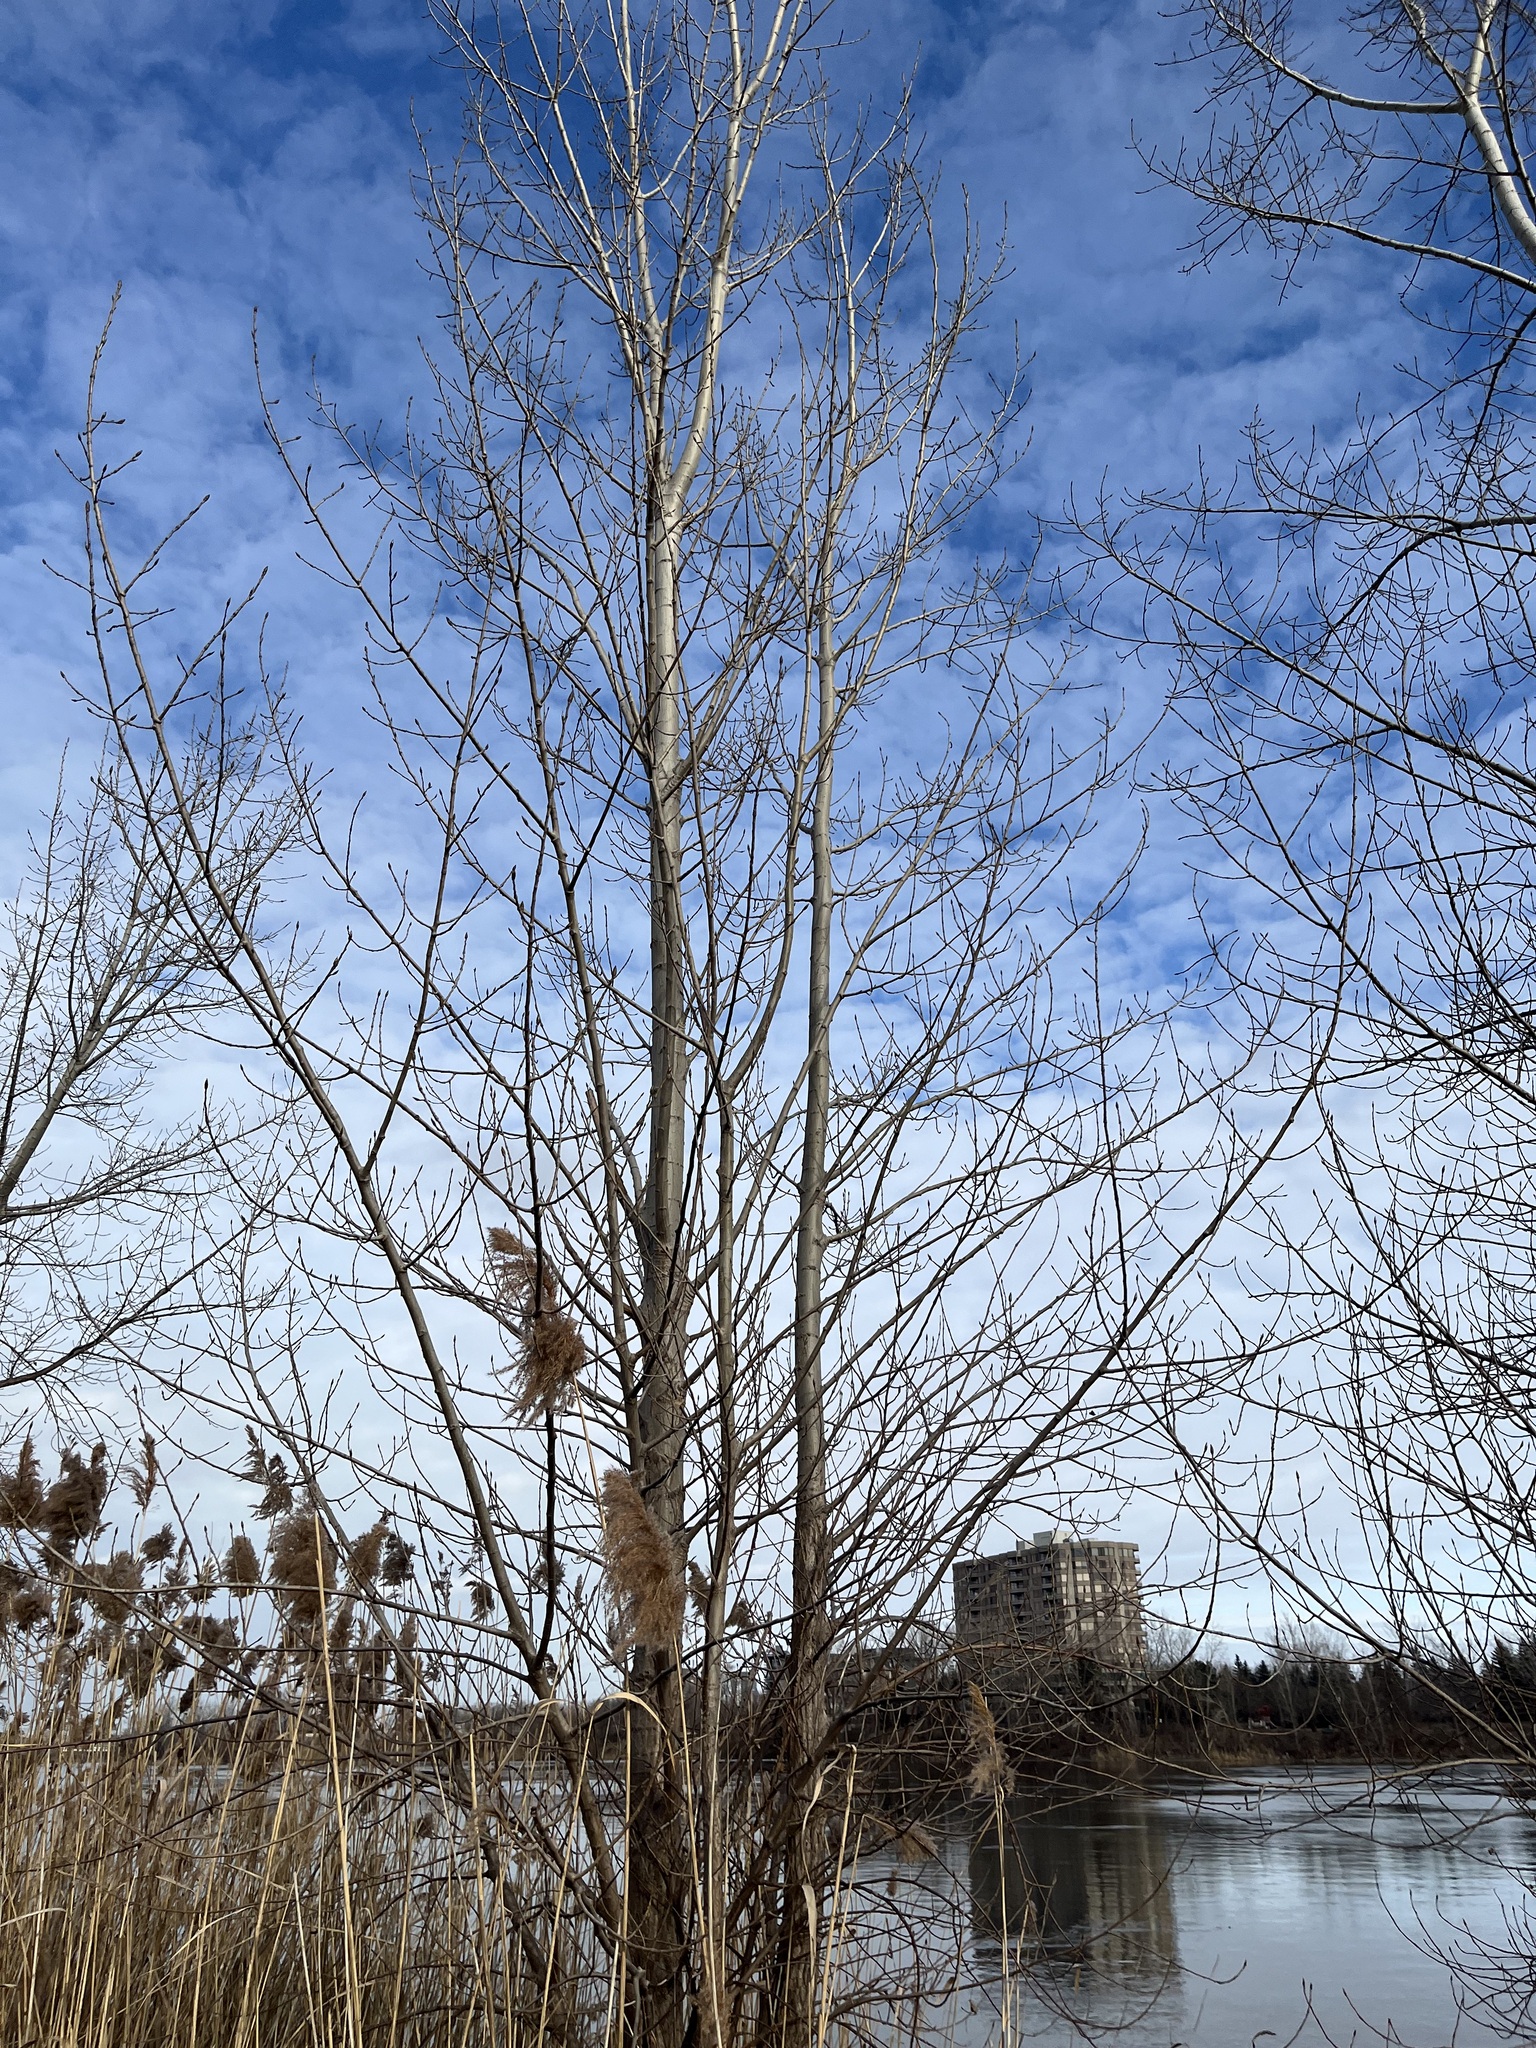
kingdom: Plantae
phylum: Tracheophyta
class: Magnoliopsida
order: Malpighiales
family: Salicaceae
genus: Populus
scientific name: Populus deltoides
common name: Eastern cottonwood
